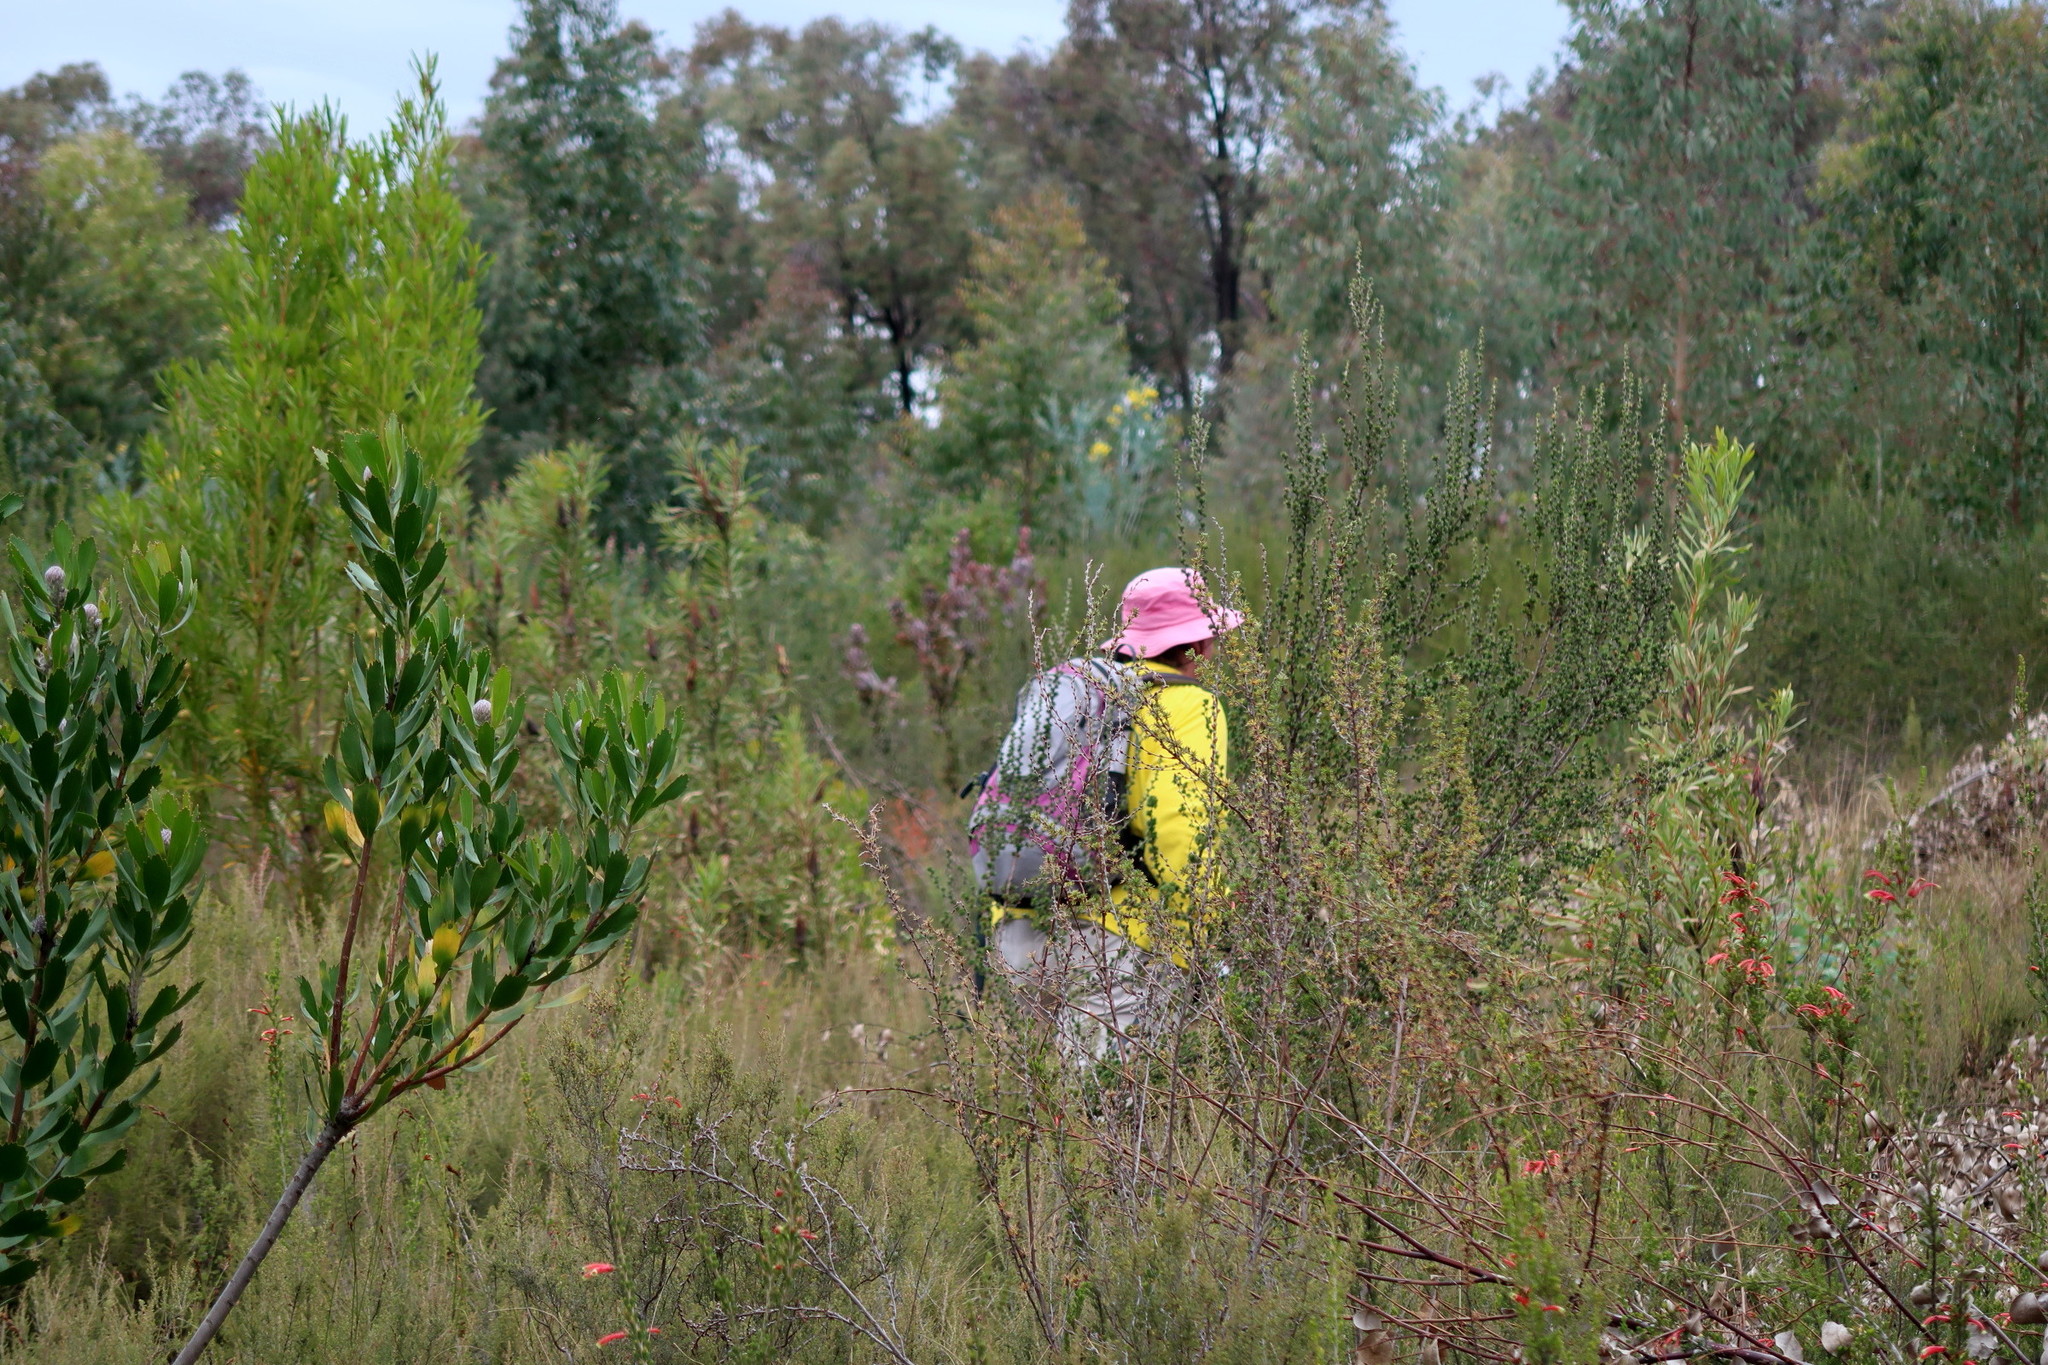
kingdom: Plantae
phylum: Tracheophyta
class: Magnoliopsida
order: Fabales
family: Fabaceae
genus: Acacia
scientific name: Acacia podalyriifolia
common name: Pearl wattle
